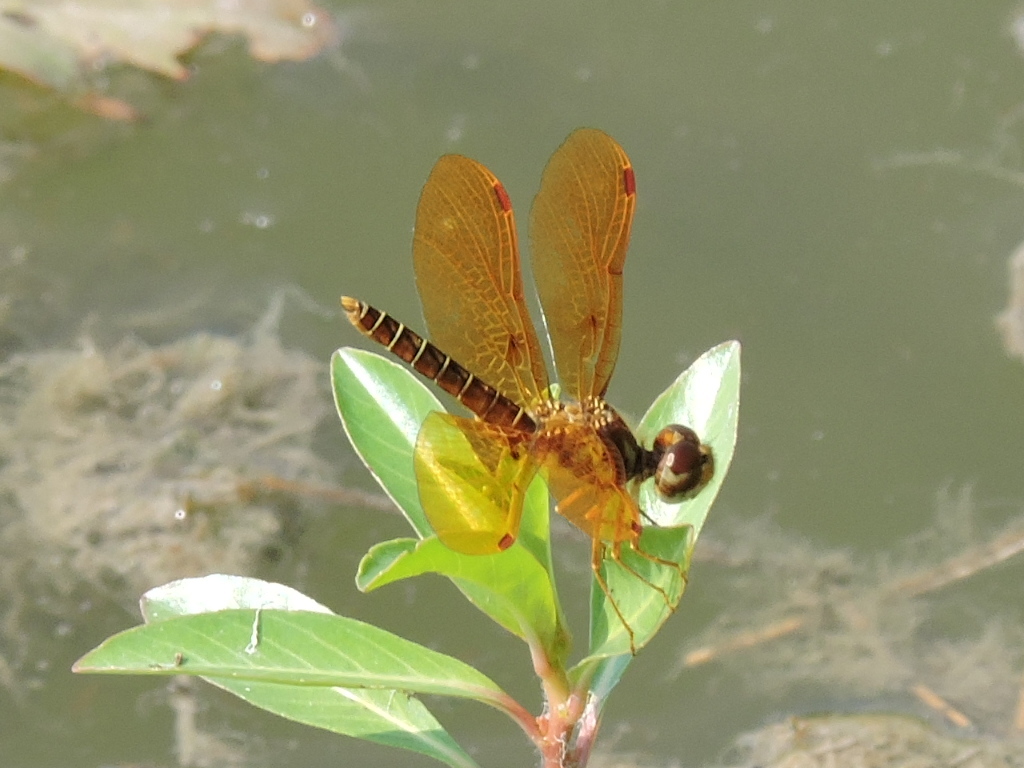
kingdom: Animalia
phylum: Arthropoda
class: Insecta
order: Odonata
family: Libellulidae
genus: Perithemis
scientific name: Perithemis tenera
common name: Eastern amberwing
